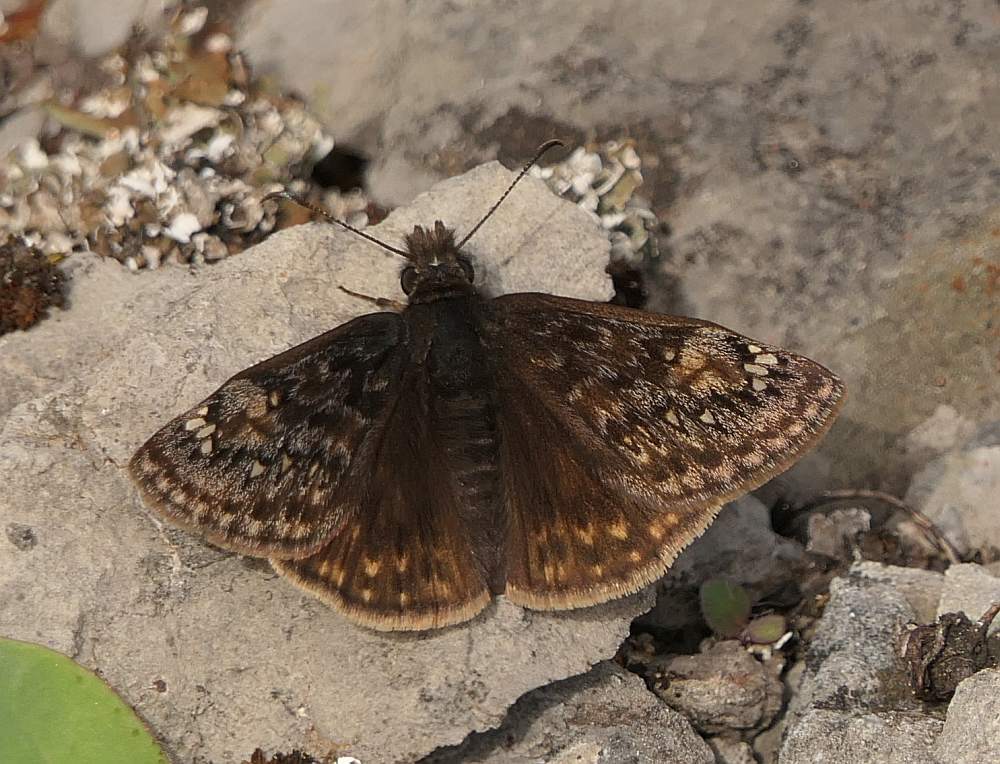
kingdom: Animalia
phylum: Arthropoda
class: Insecta
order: Lepidoptera
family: Hesperiidae
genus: Erynnis
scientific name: Erynnis juvenalis
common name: Juvenal's duskywing
